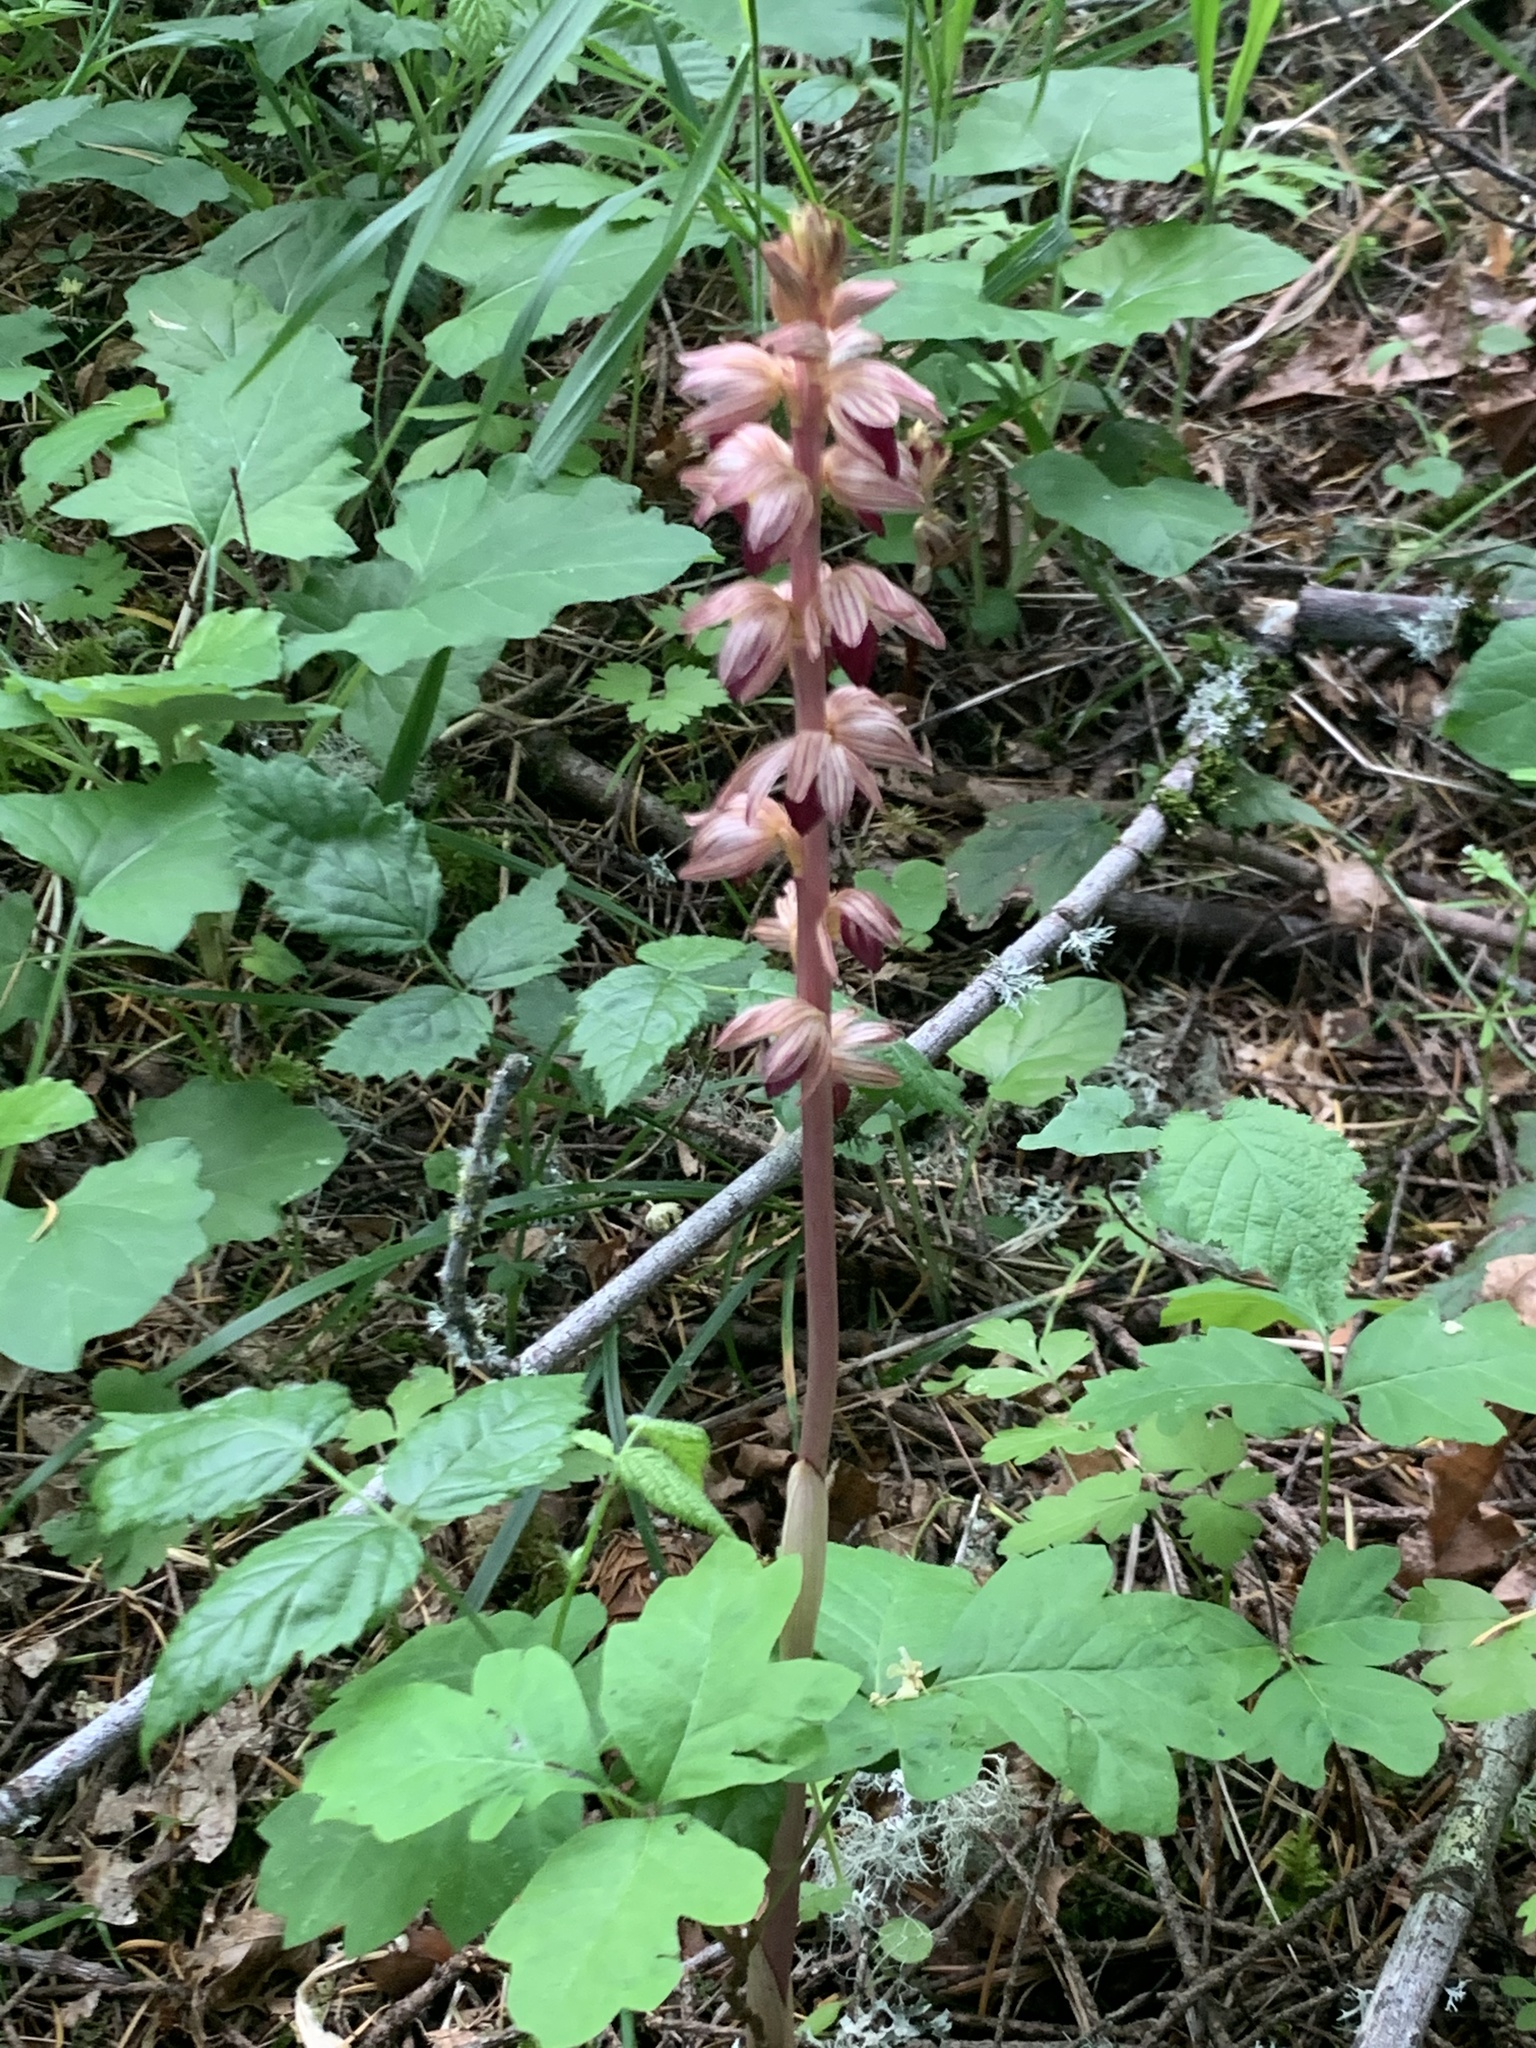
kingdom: Plantae
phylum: Tracheophyta
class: Liliopsida
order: Asparagales
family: Orchidaceae
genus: Corallorhiza
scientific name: Corallorhiza striata
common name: Hooded coralroot
